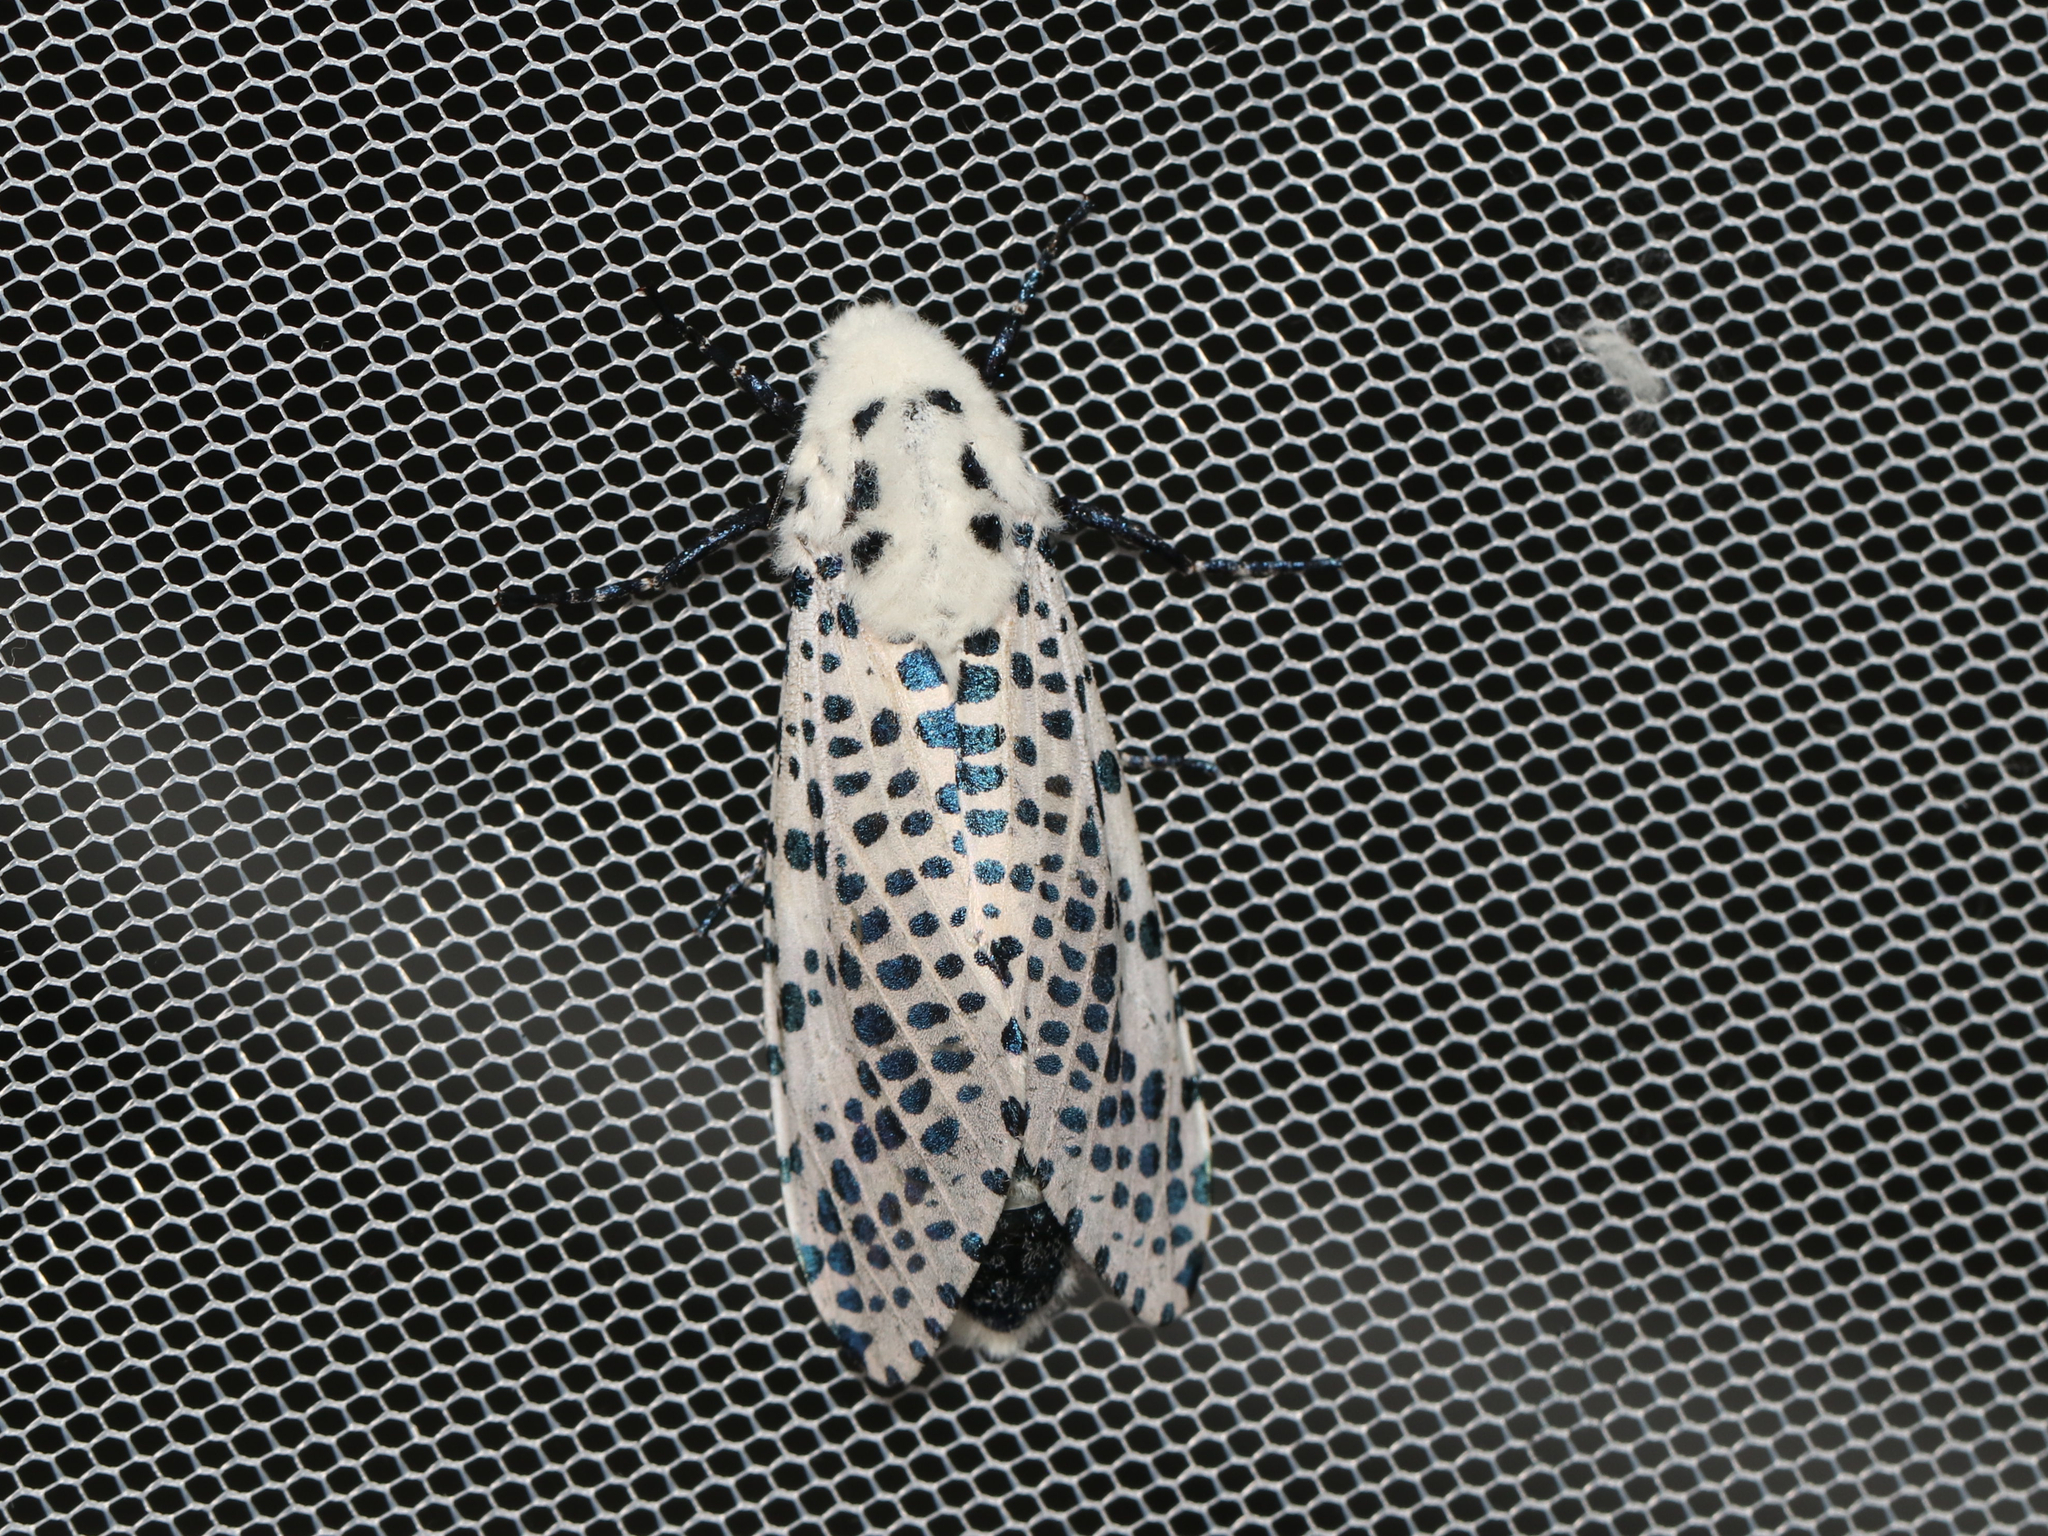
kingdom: Animalia
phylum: Arthropoda
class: Insecta
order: Lepidoptera
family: Cossidae
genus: Zeuzera
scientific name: Zeuzera pyrina
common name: Leopard moth
